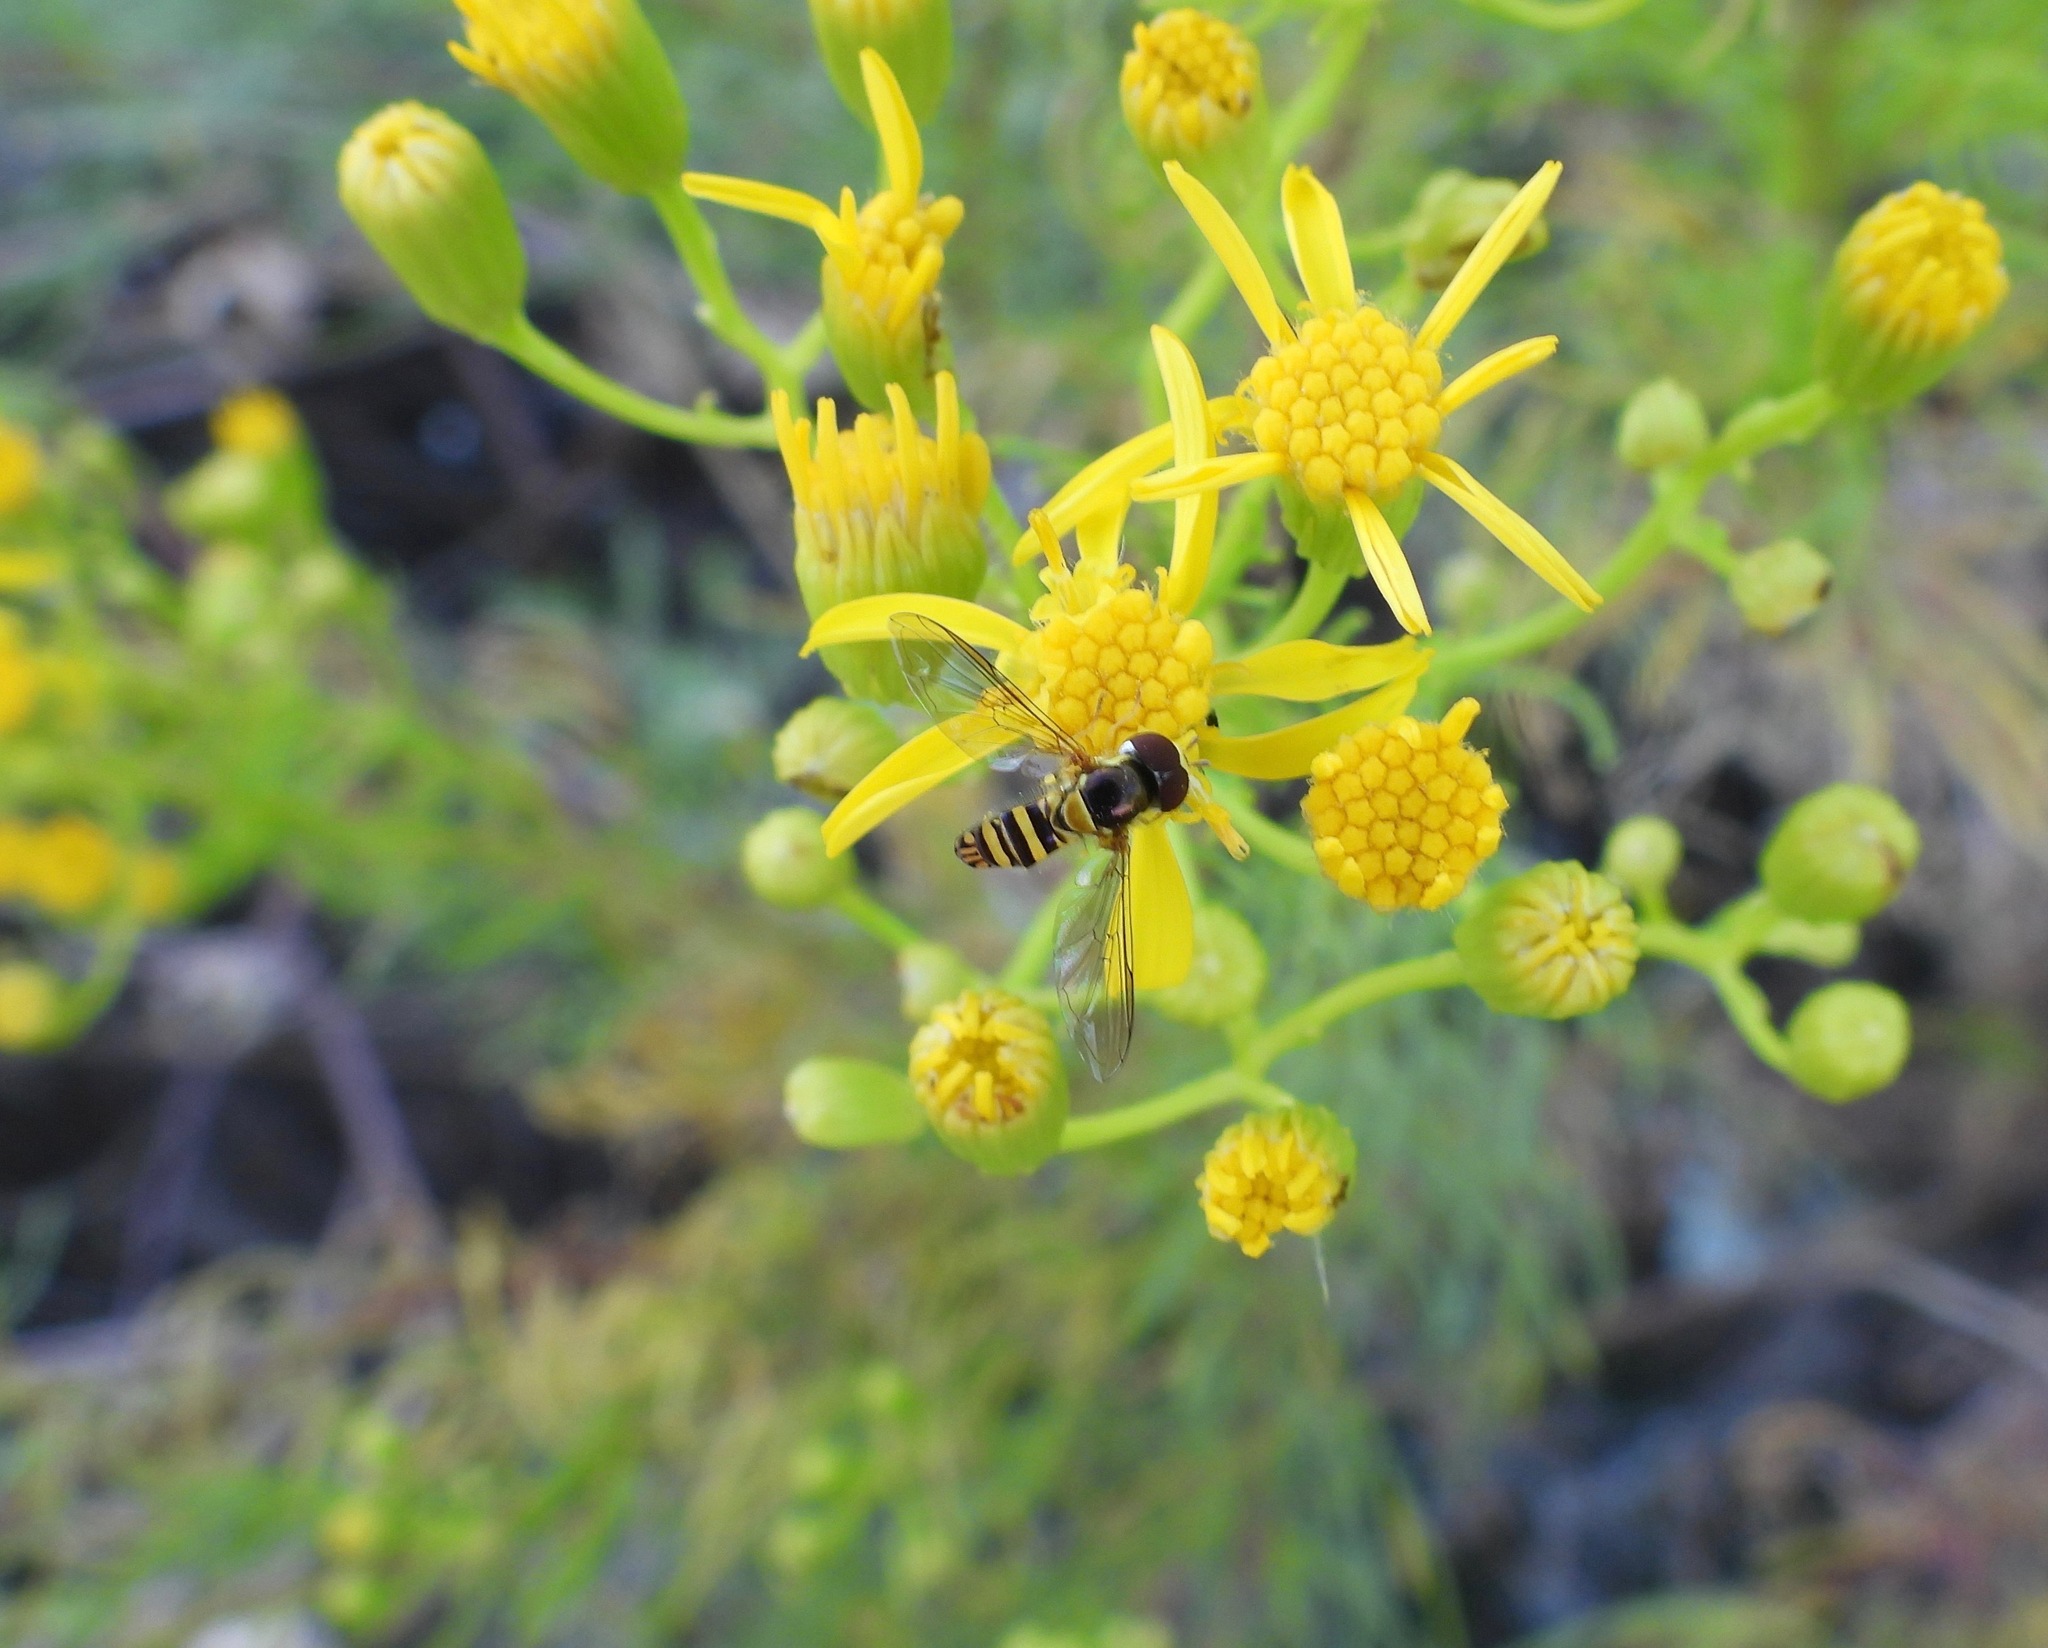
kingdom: Animalia
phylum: Arthropoda
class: Insecta
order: Diptera
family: Syrphidae
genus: Allograpta
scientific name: Allograpta obliqua
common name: Common oblique syrphid
